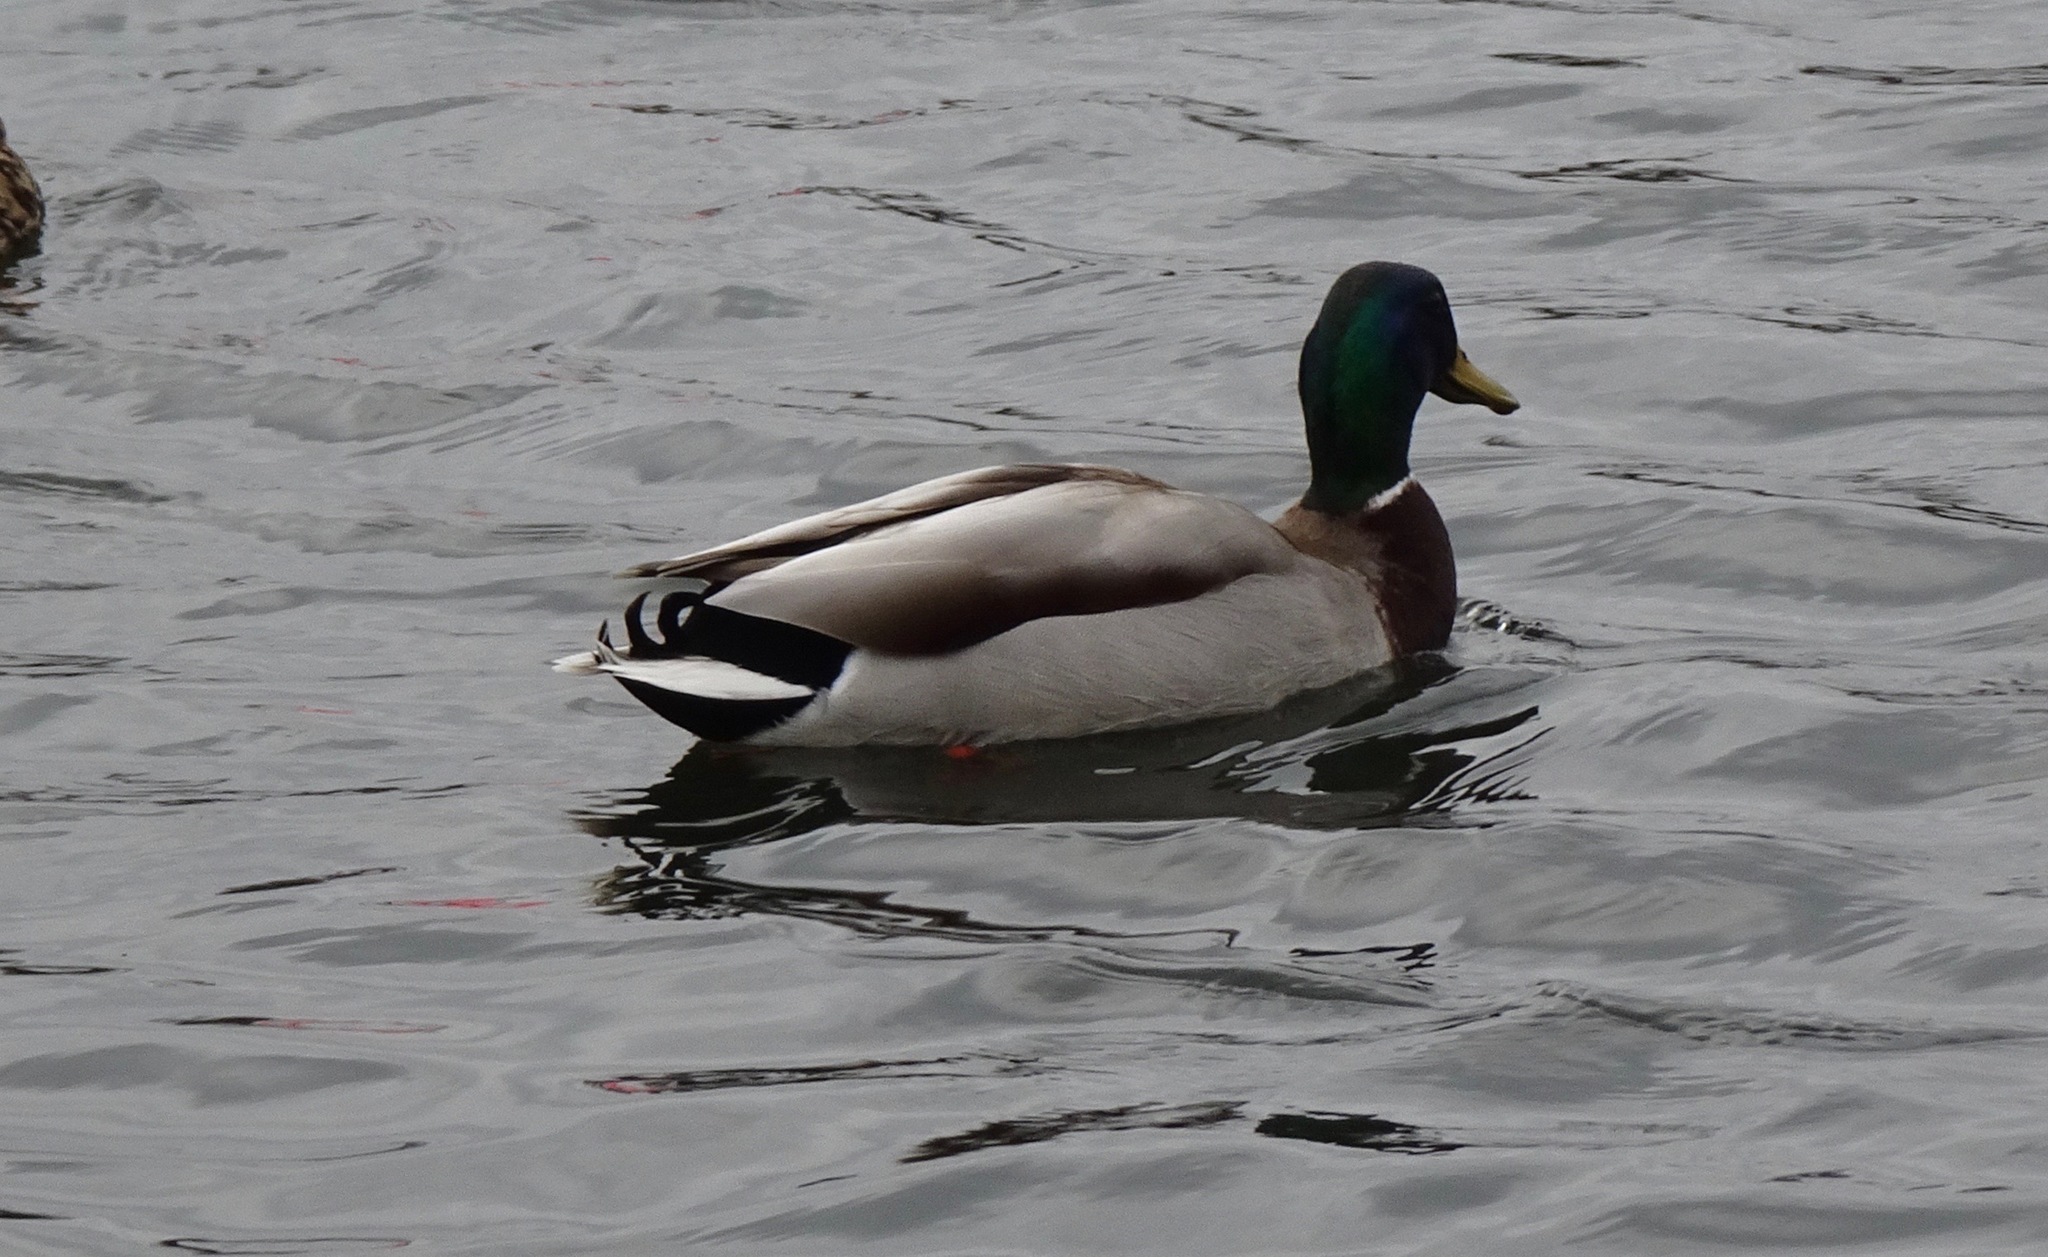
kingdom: Animalia
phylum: Chordata
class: Aves
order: Anseriformes
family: Anatidae
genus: Anas
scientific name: Anas platyrhynchos
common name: Mallard
